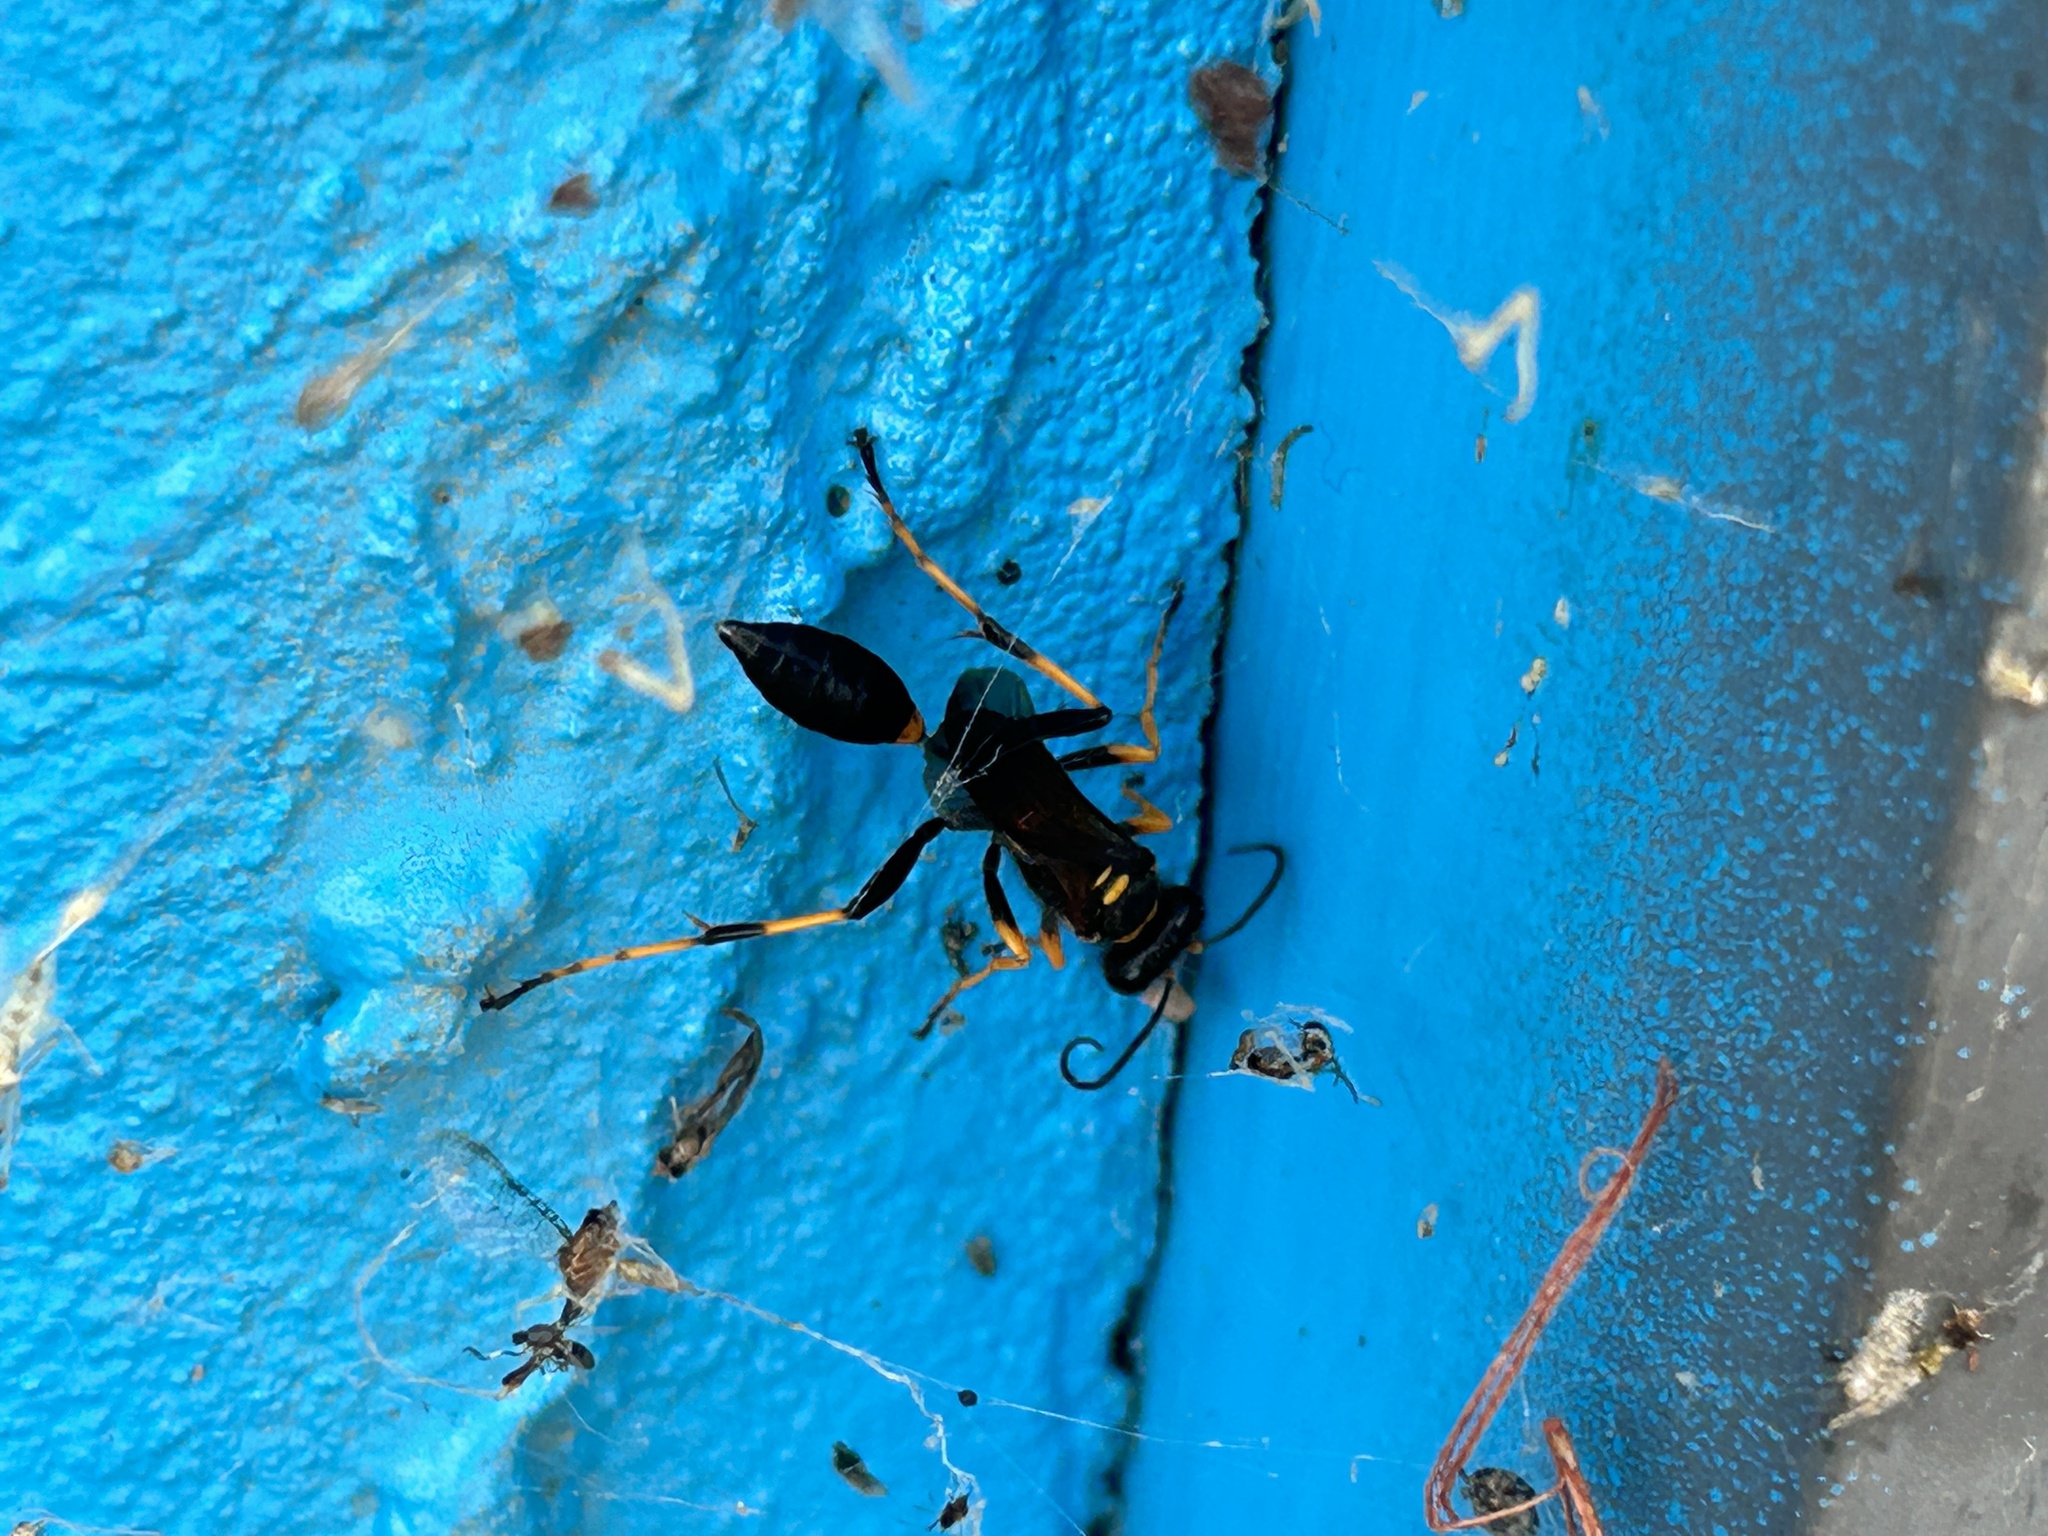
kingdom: Animalia
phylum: Arthropoda
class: Insecta
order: Hymenoptera
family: Sphecidae
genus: Sceliphron
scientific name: Sceliphron caementarium
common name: Mud dauber
